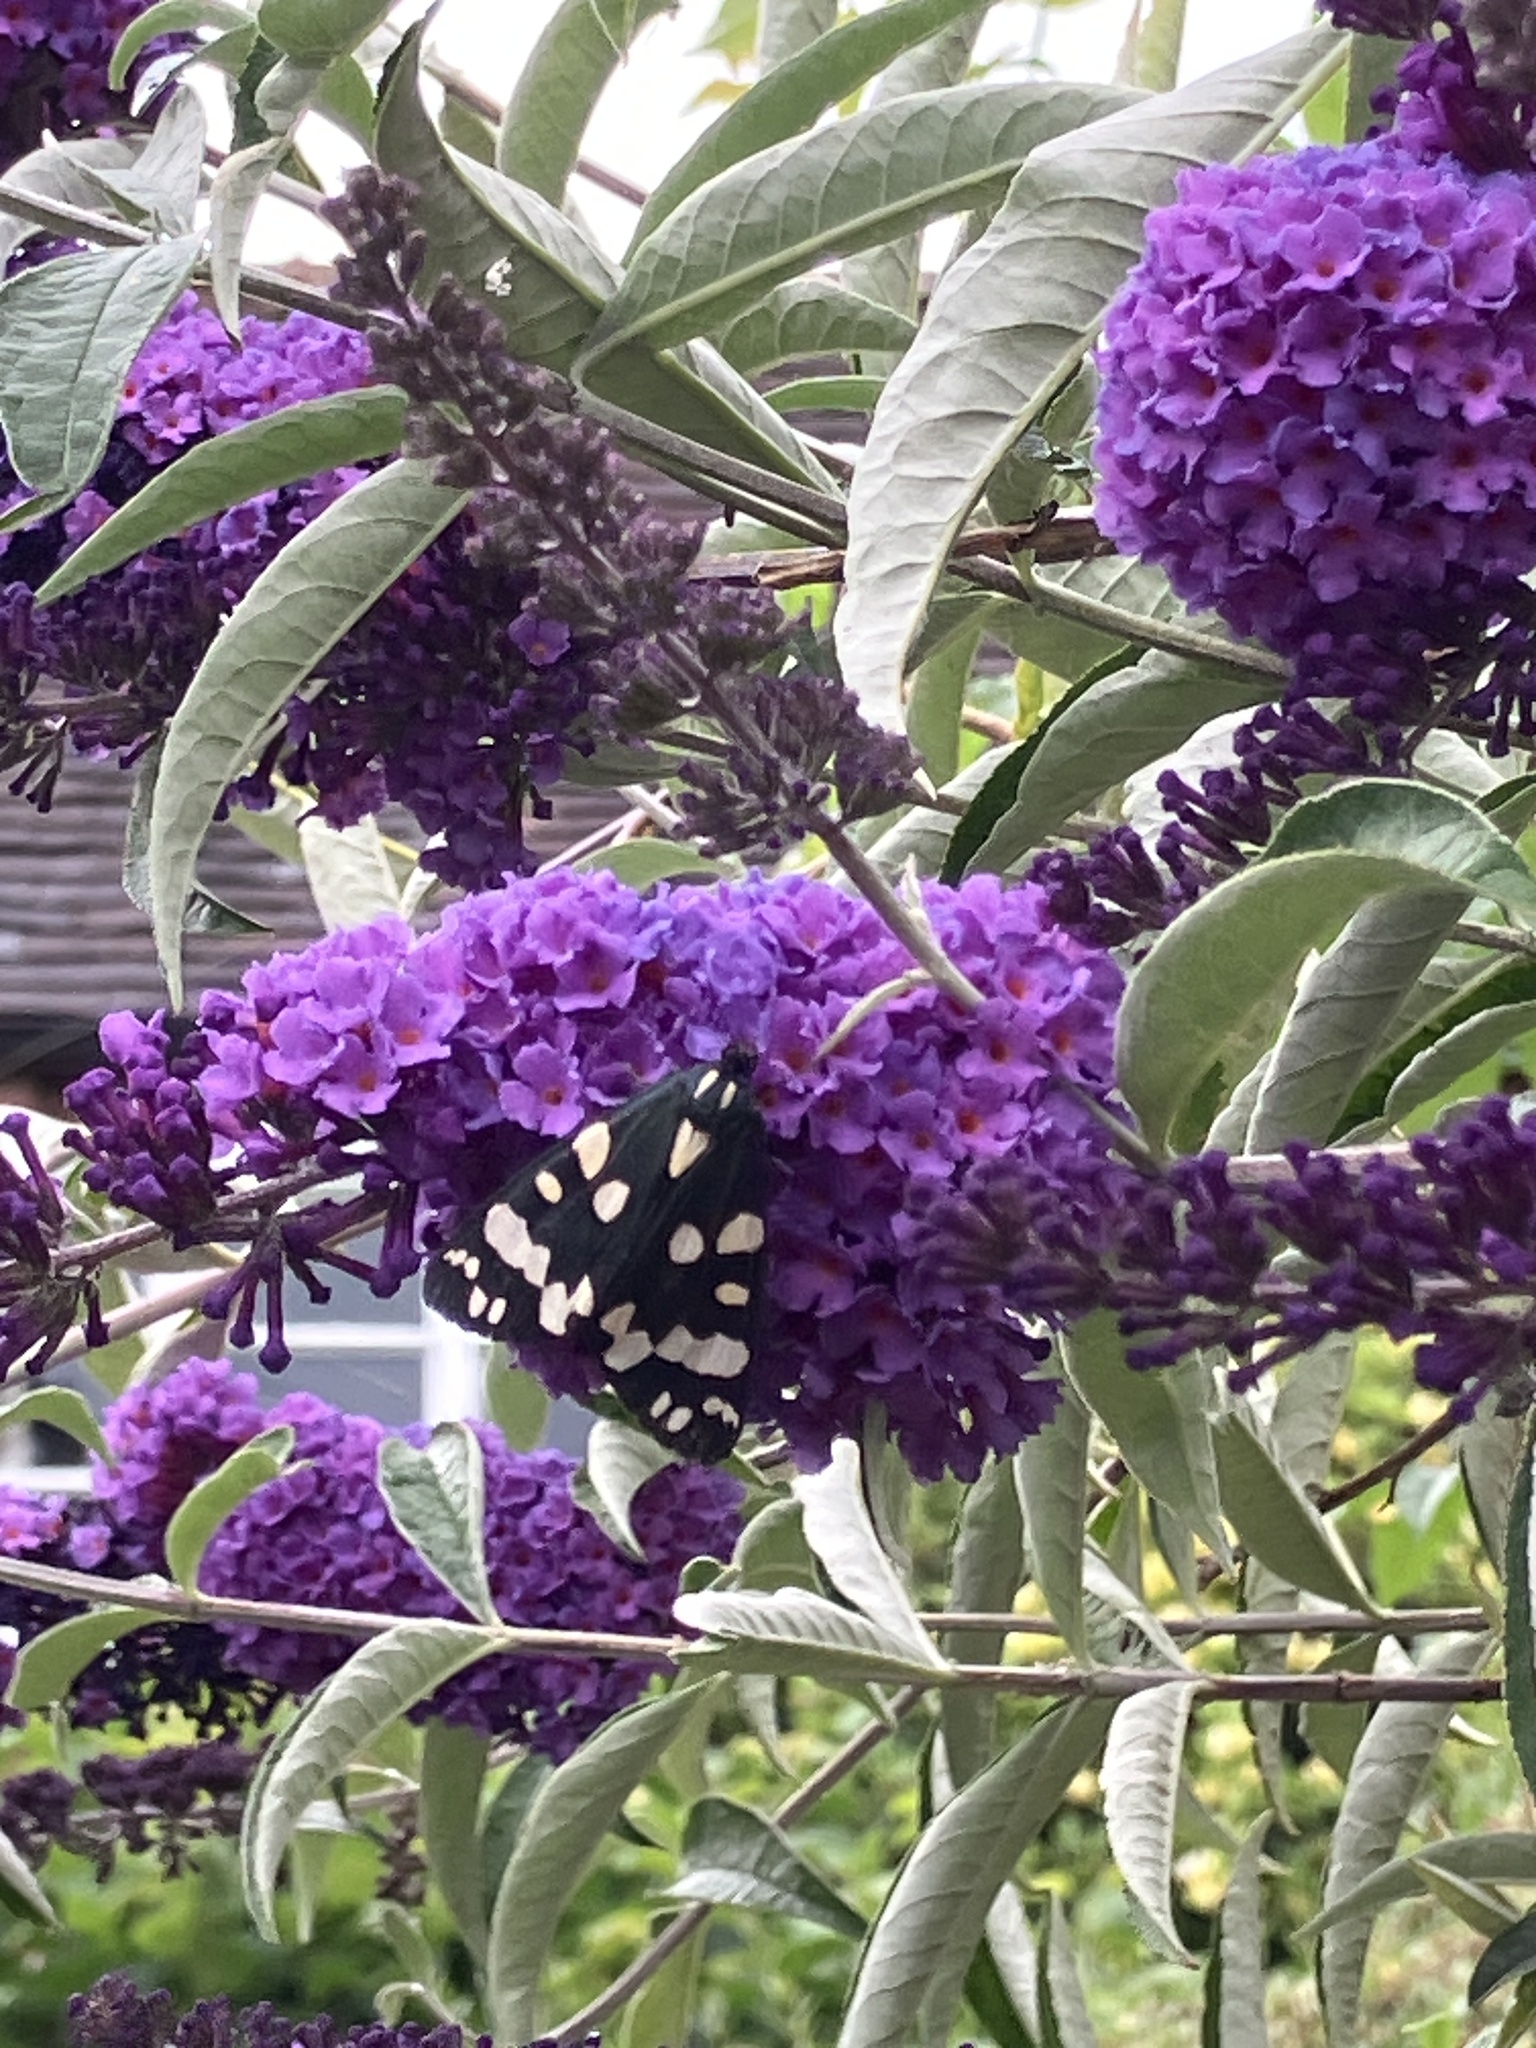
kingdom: Animalia
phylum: Arthropoda
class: Insecta
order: Lepidoptera
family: Erebidae
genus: Callimorpha
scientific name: Callimorpha dominula
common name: Scarlet tiger
